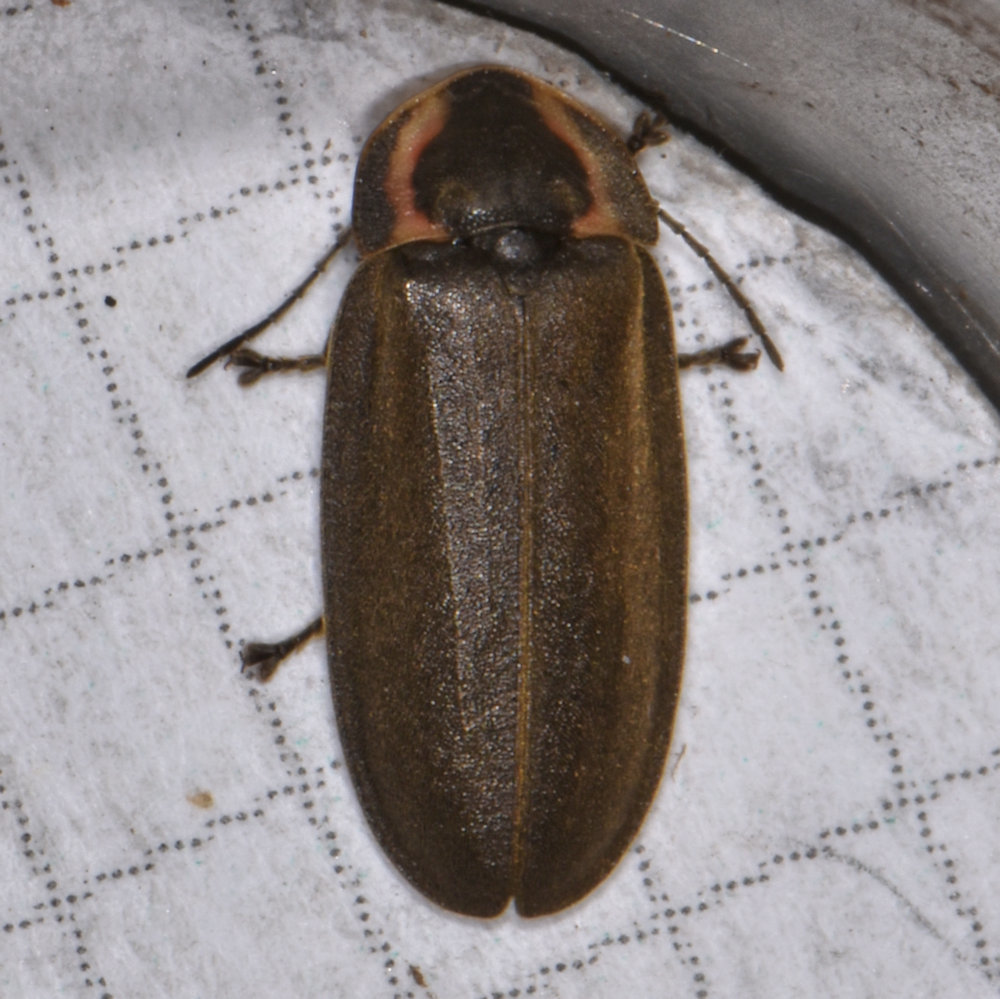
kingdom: Animalia
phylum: Arthropoda
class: Insecta
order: Coleoptera
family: Lampyridae
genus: Photinus
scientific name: Photinus corrusca
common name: Winter firefly
